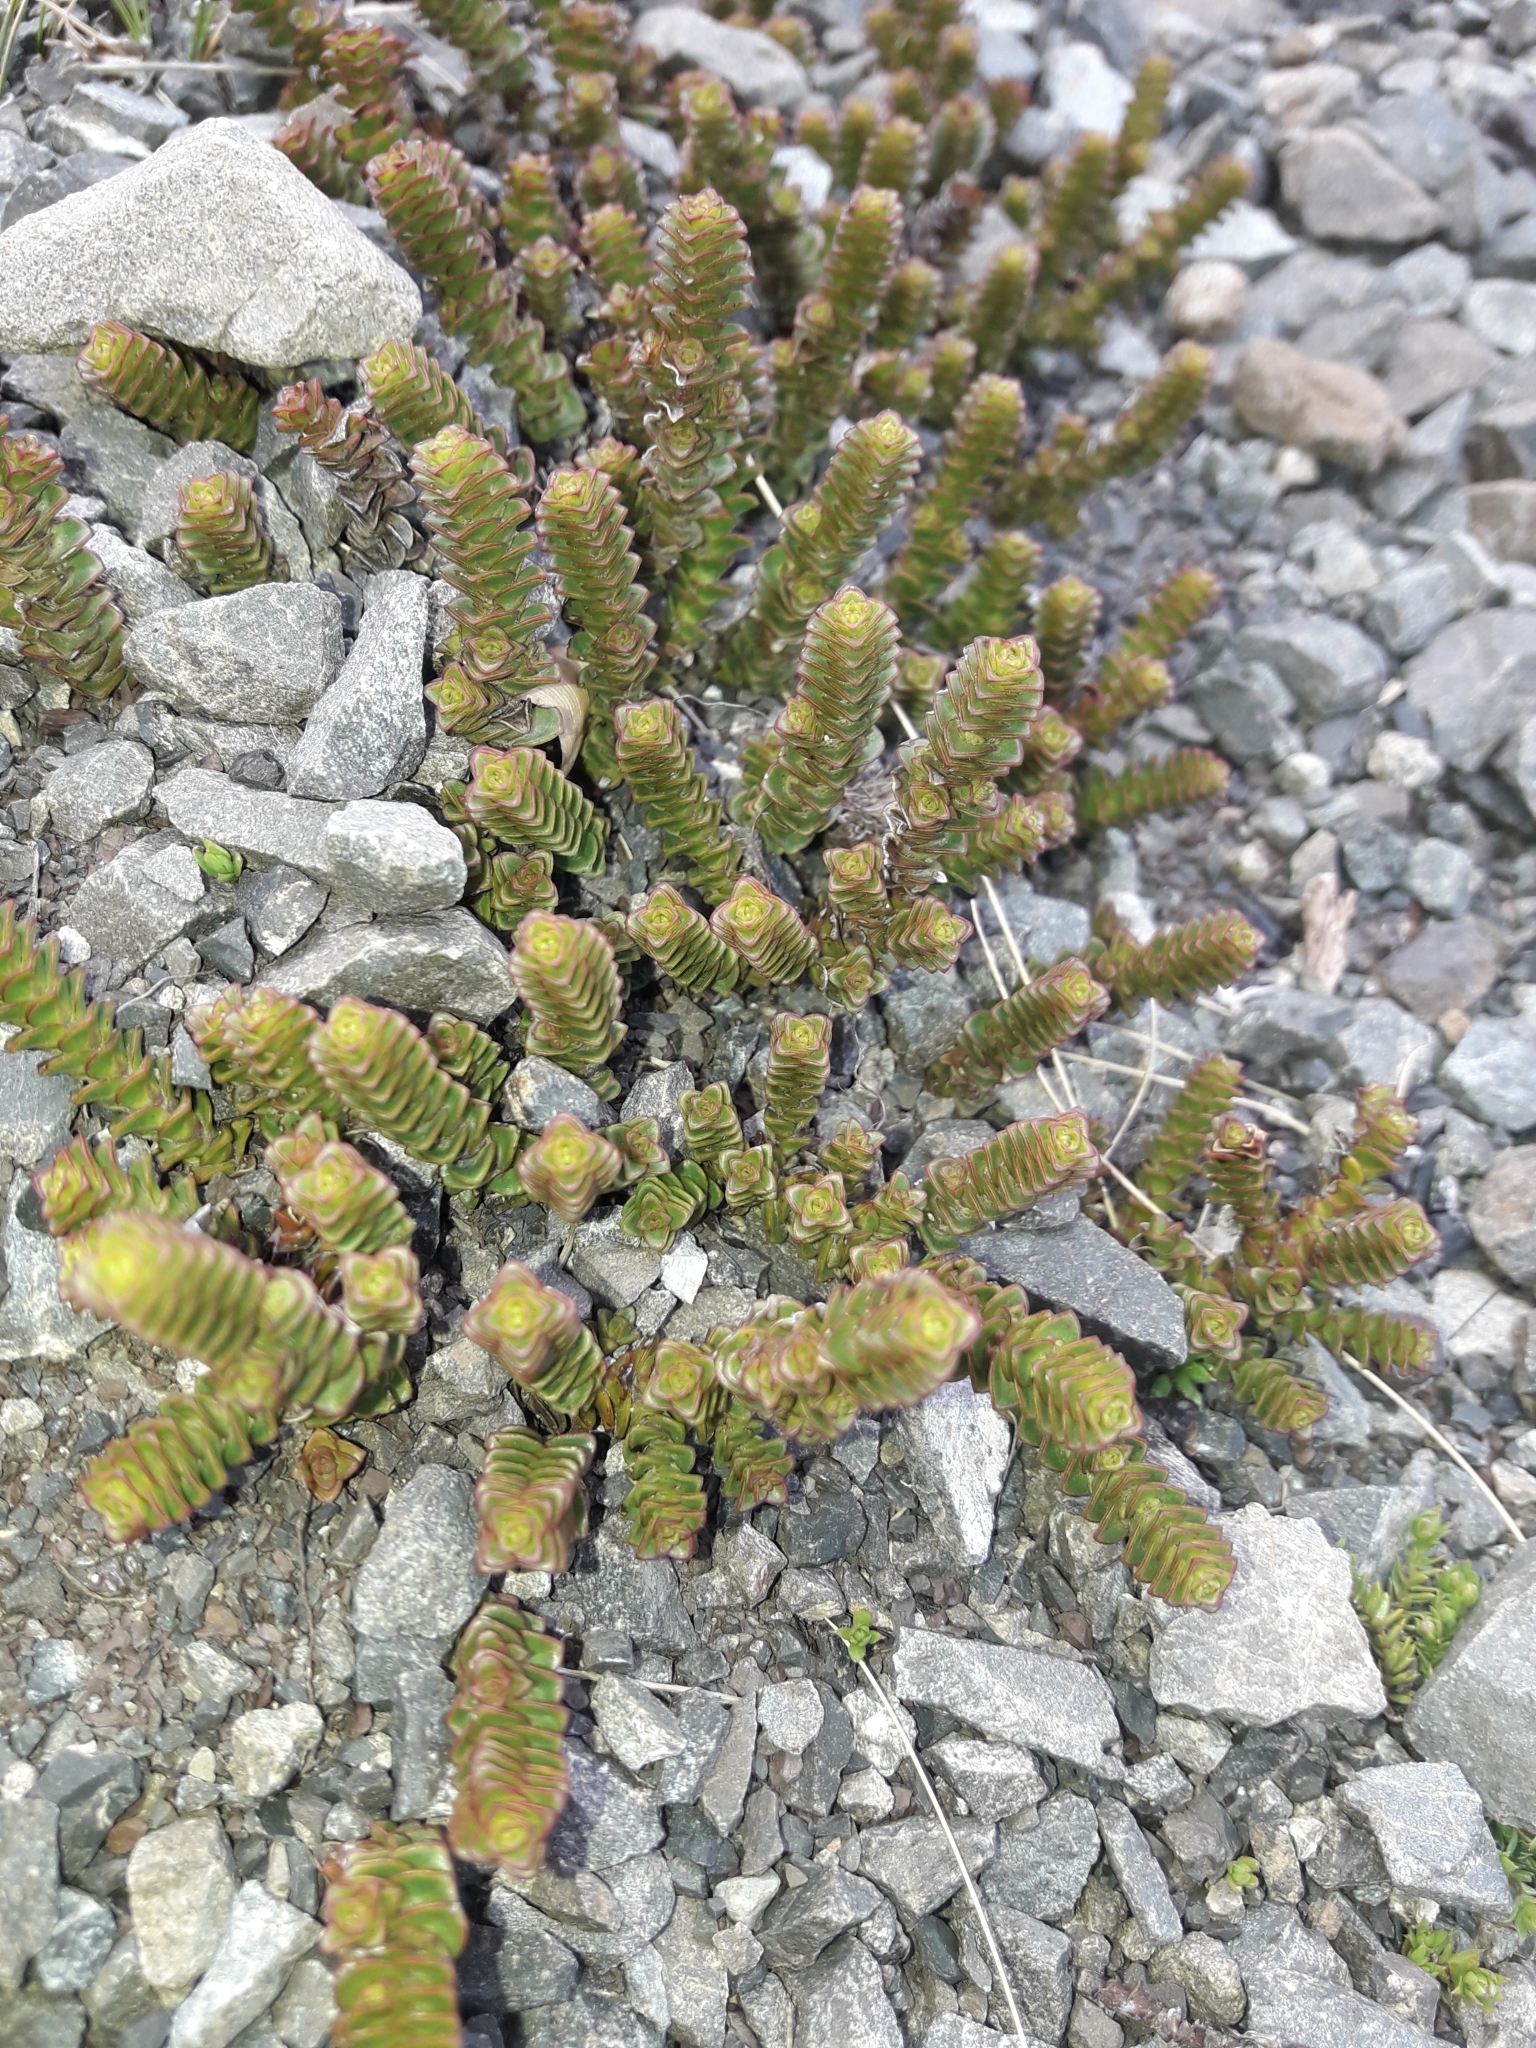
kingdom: Plantae
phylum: Tracheophyta
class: Magnoliopsida
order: Lamiales
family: Plantaginaceae
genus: Veronica
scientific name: Veronica epacridea
